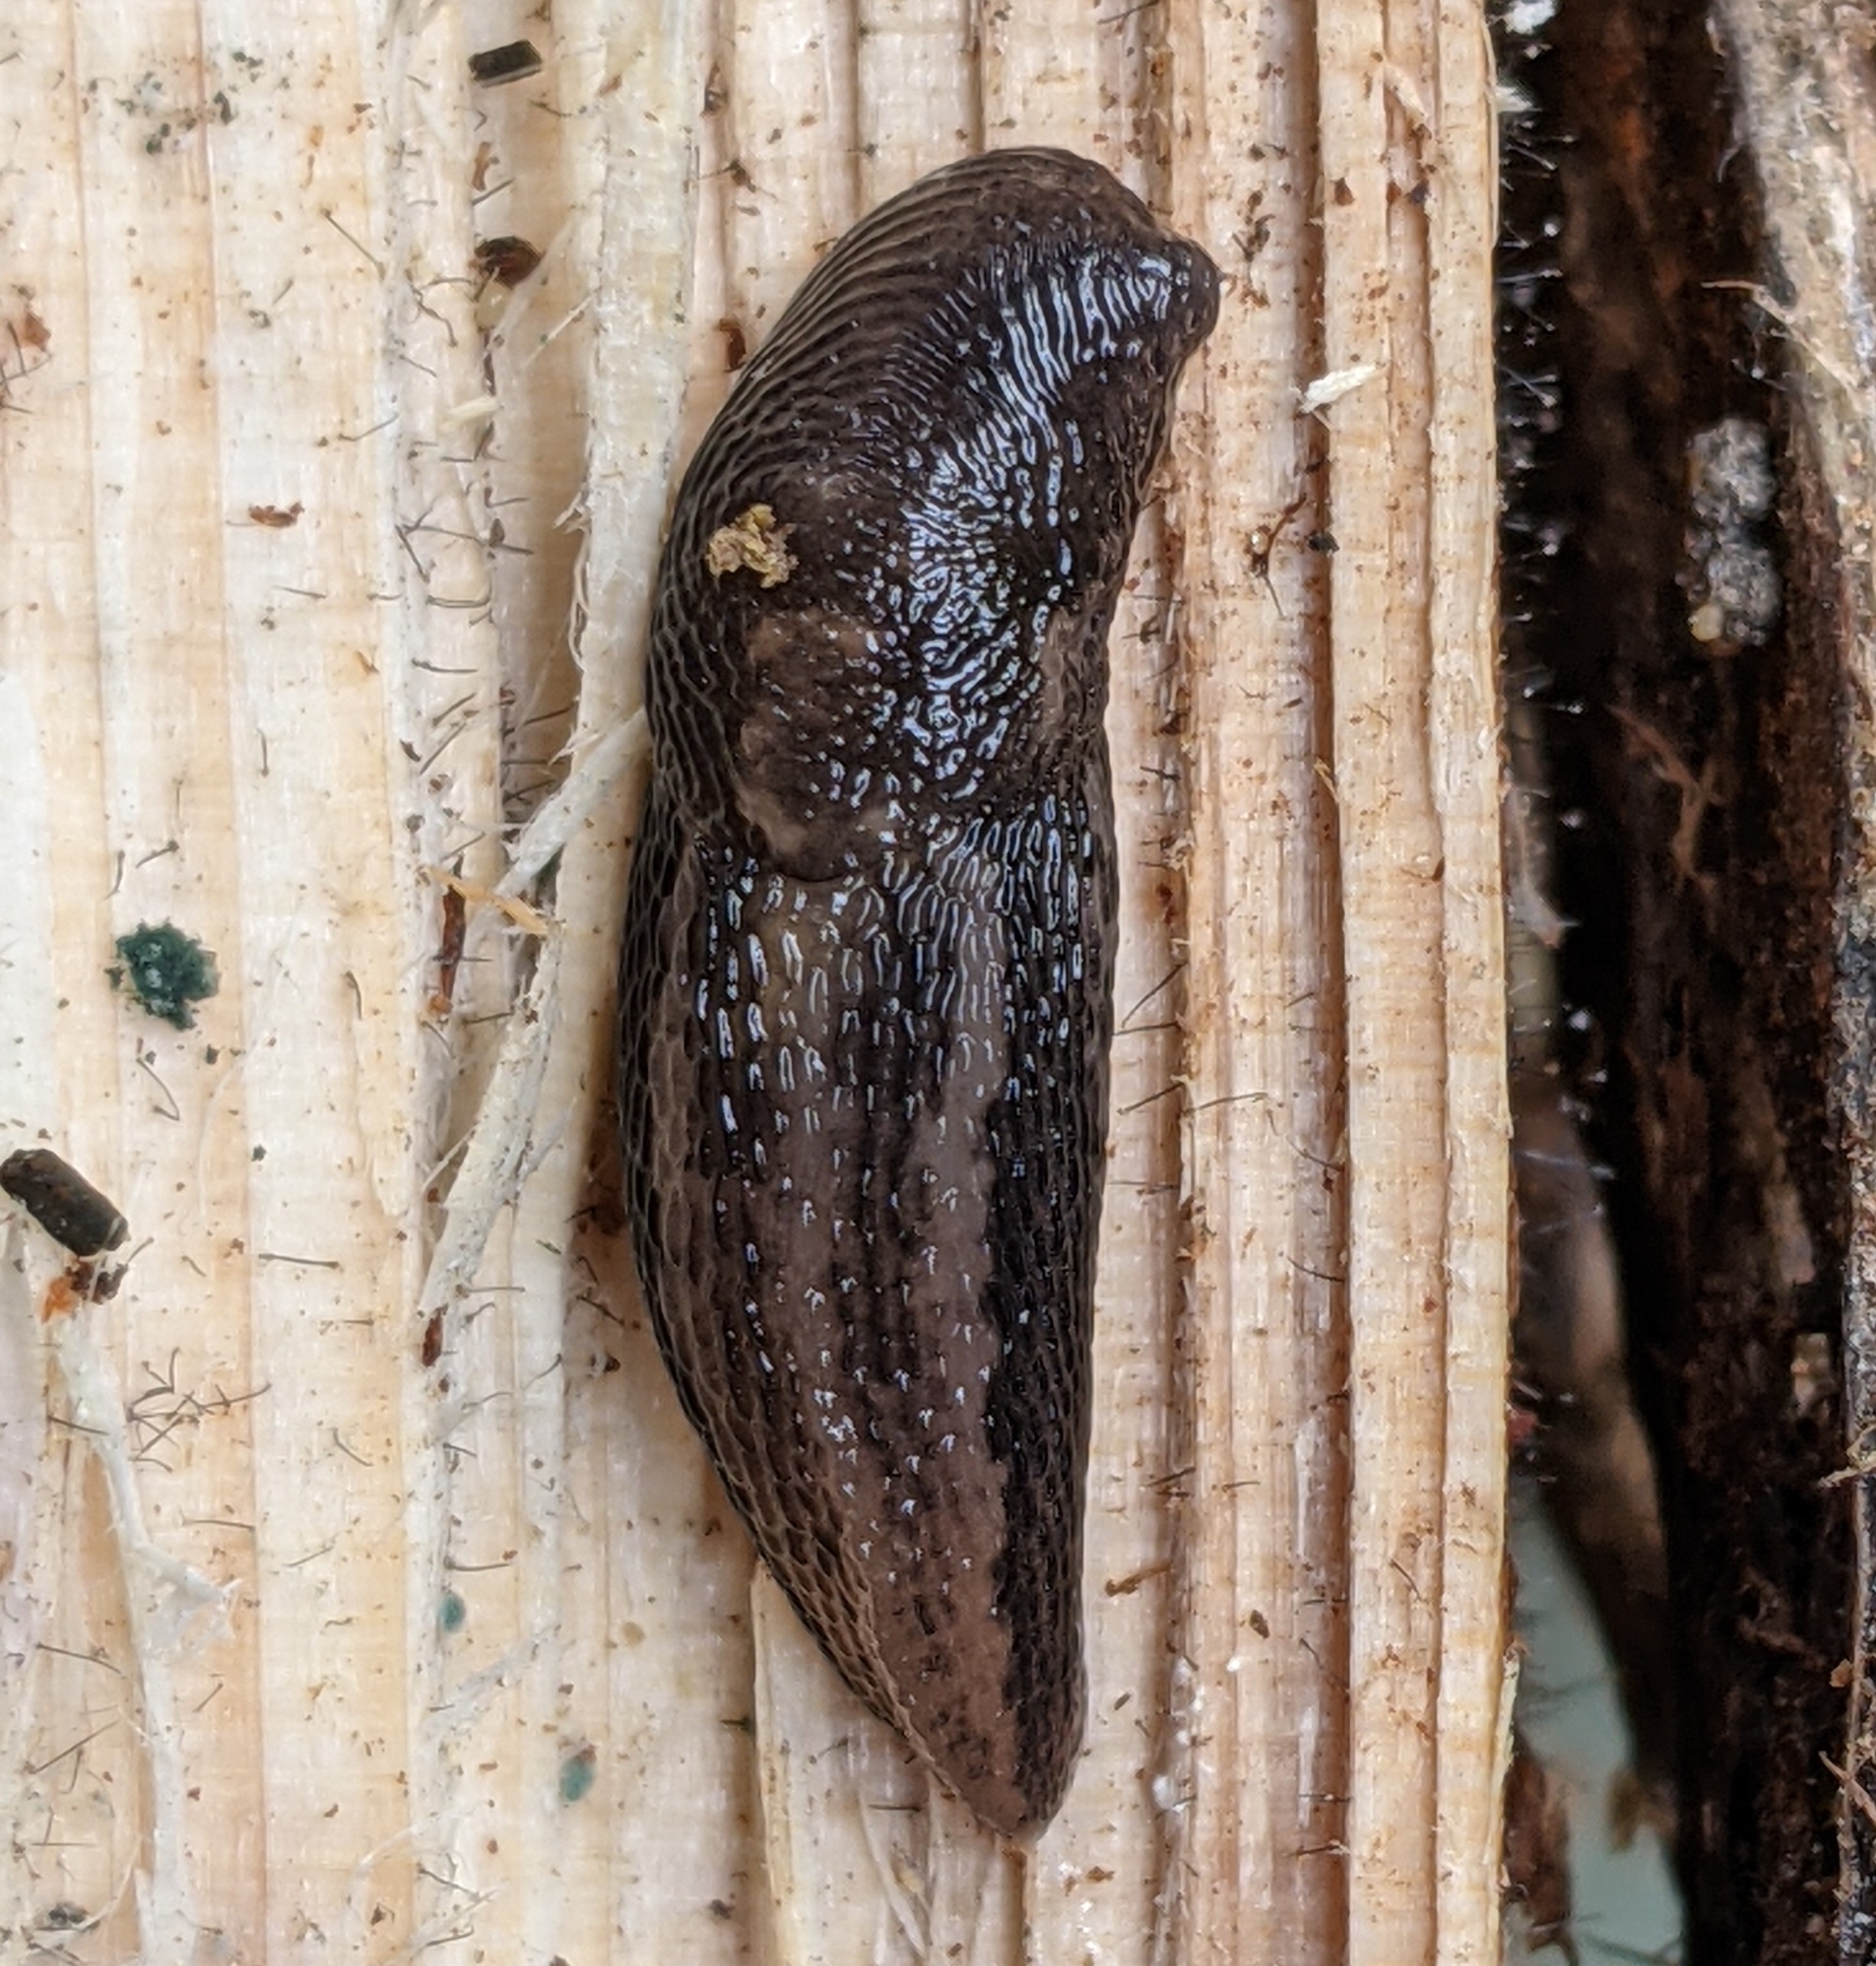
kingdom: Animalia
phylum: Mollusca
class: Gastropoda
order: Stylommatophora
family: Limacidae
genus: Limax
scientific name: Limax maximus
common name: Great grey slug
